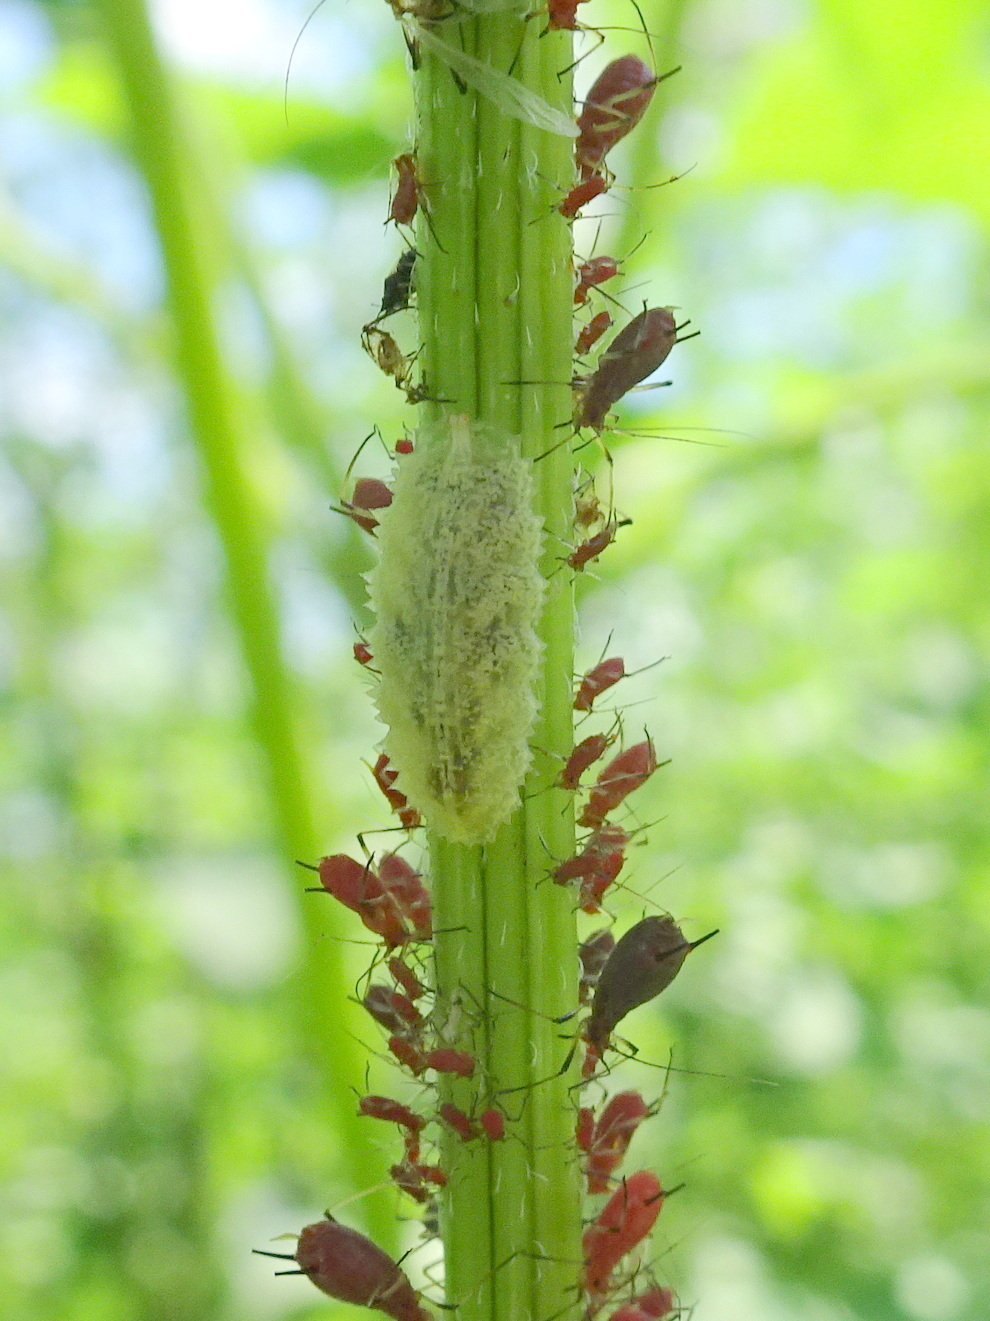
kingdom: Animalia
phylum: Arthropoda
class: Insecta
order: Diptera
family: Syrphidae
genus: Epistrophella
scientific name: Epistrophella emarginata
